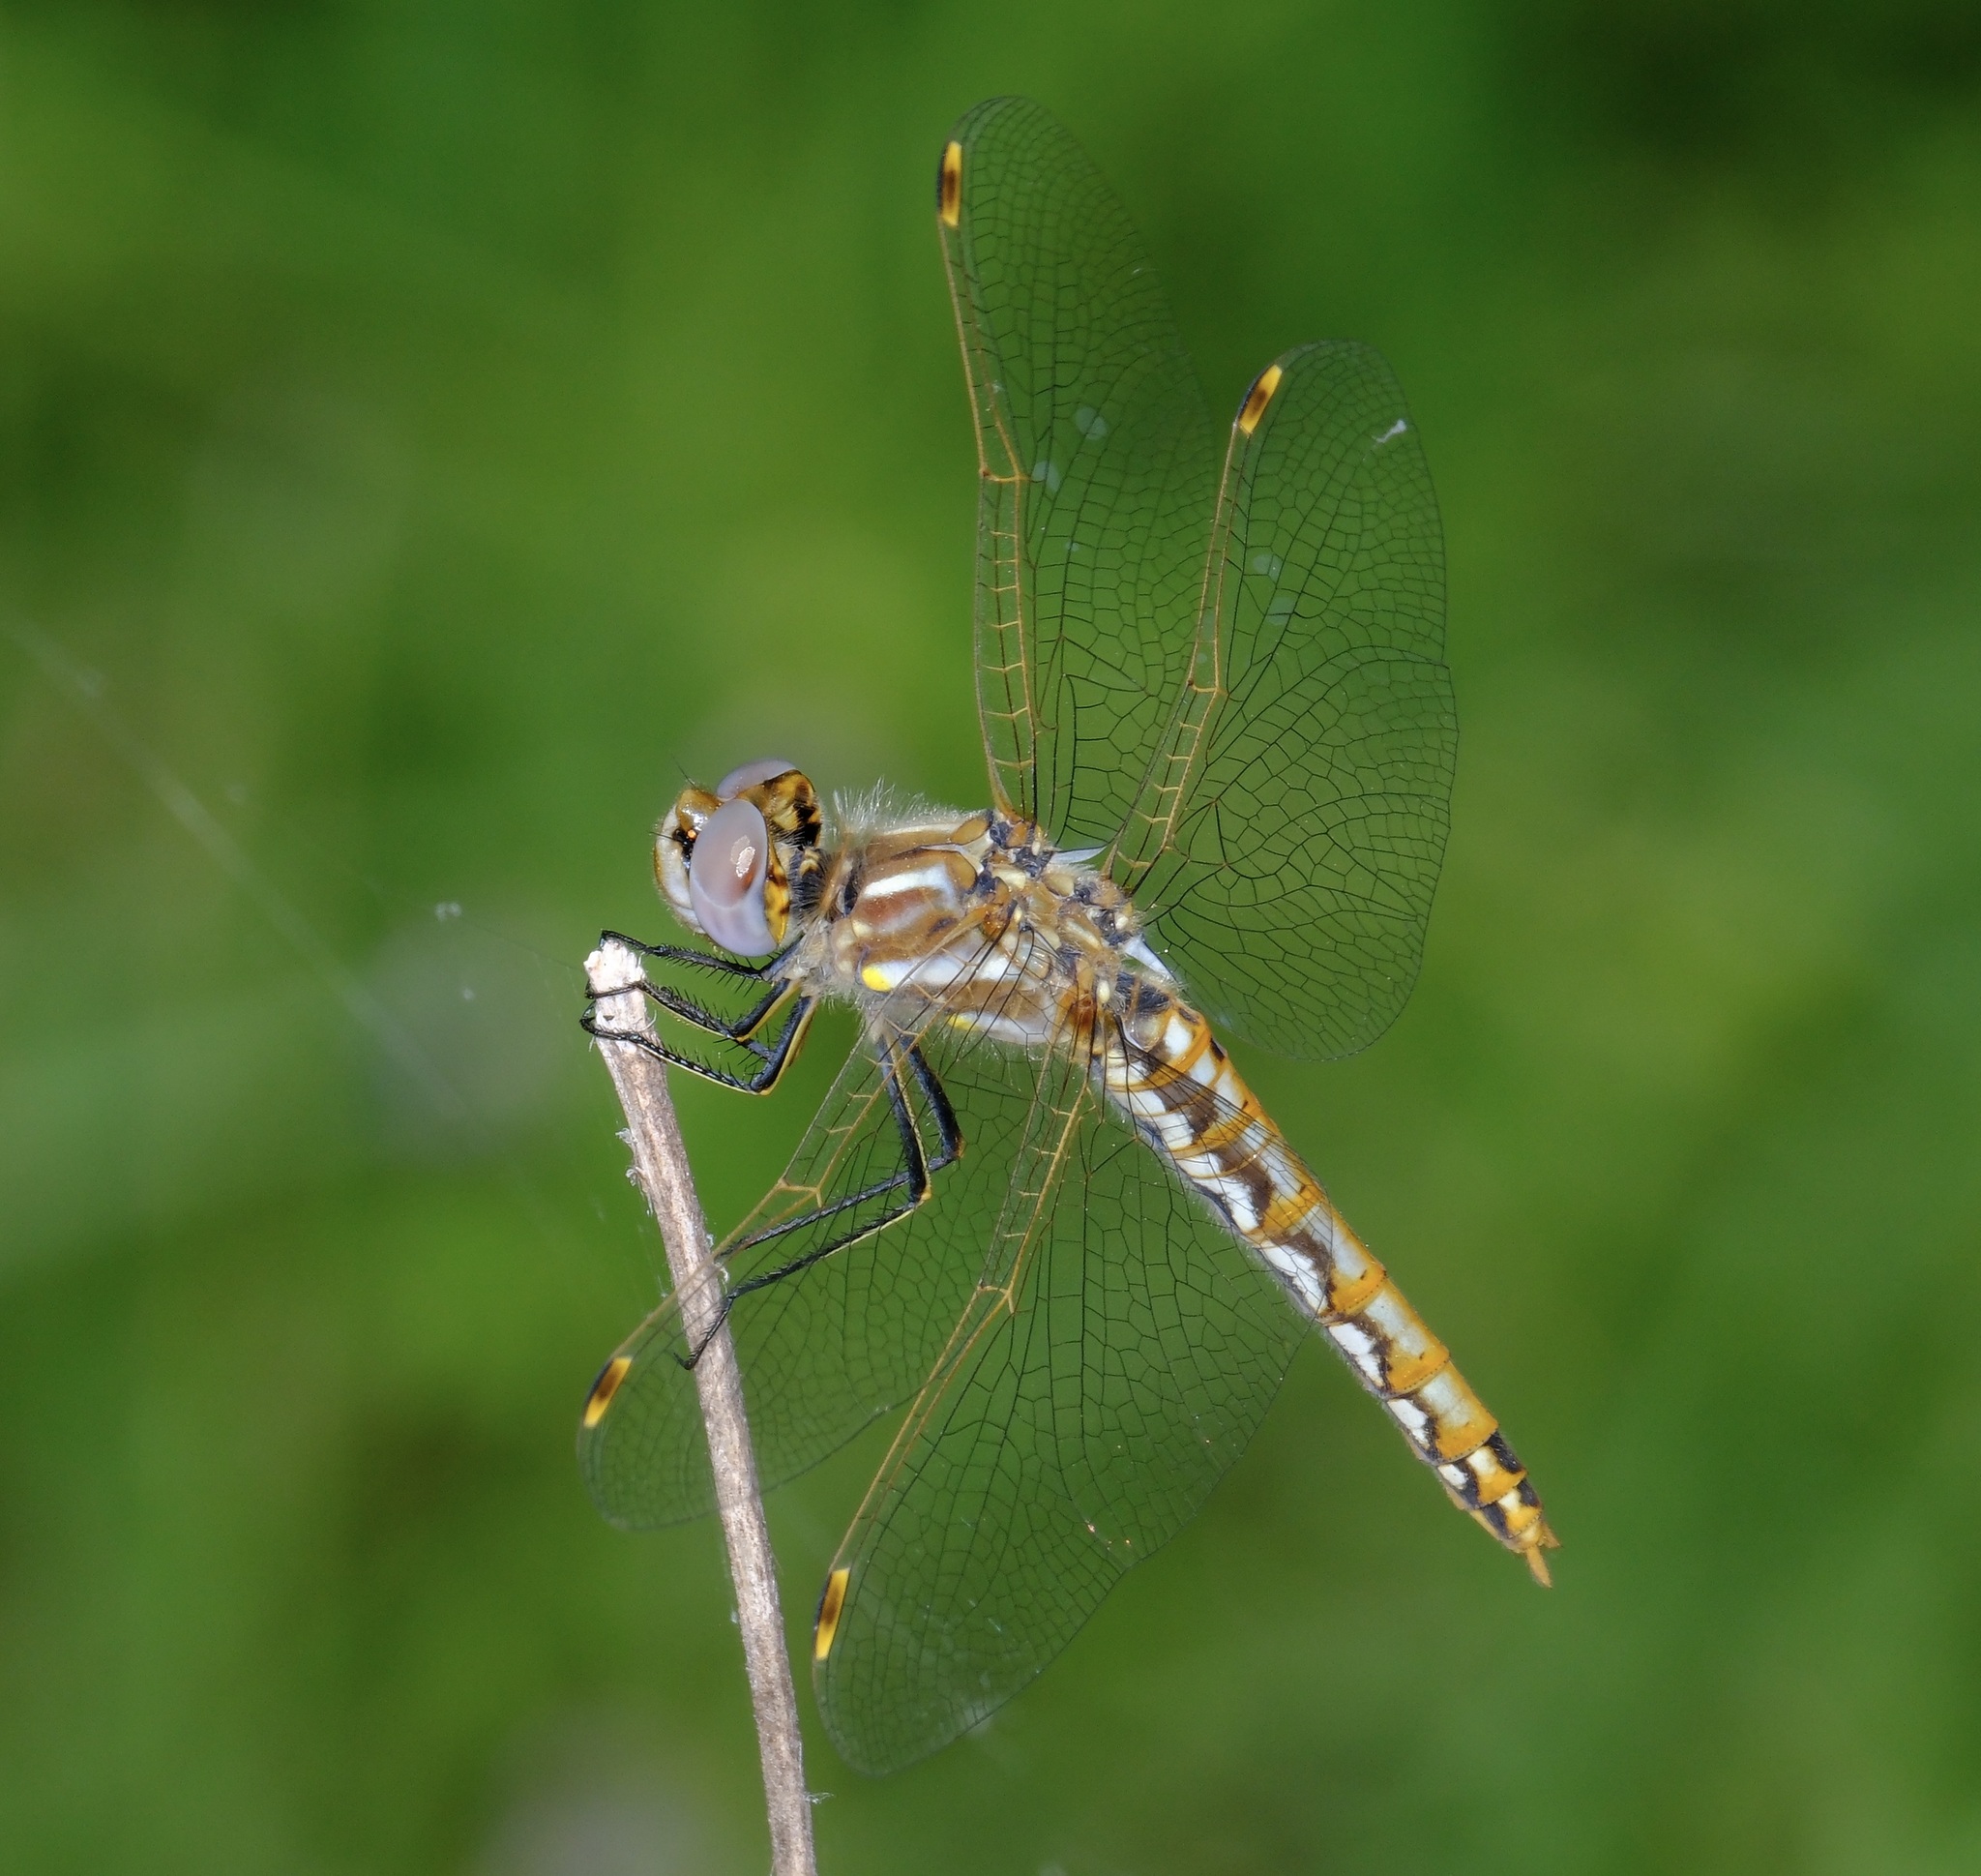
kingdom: Animalia
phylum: Arthropoda
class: Insecta
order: Odonata
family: Libellulidae
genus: Sympetrum
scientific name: Sympetrum corruptum
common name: Variegated meadowhawk
